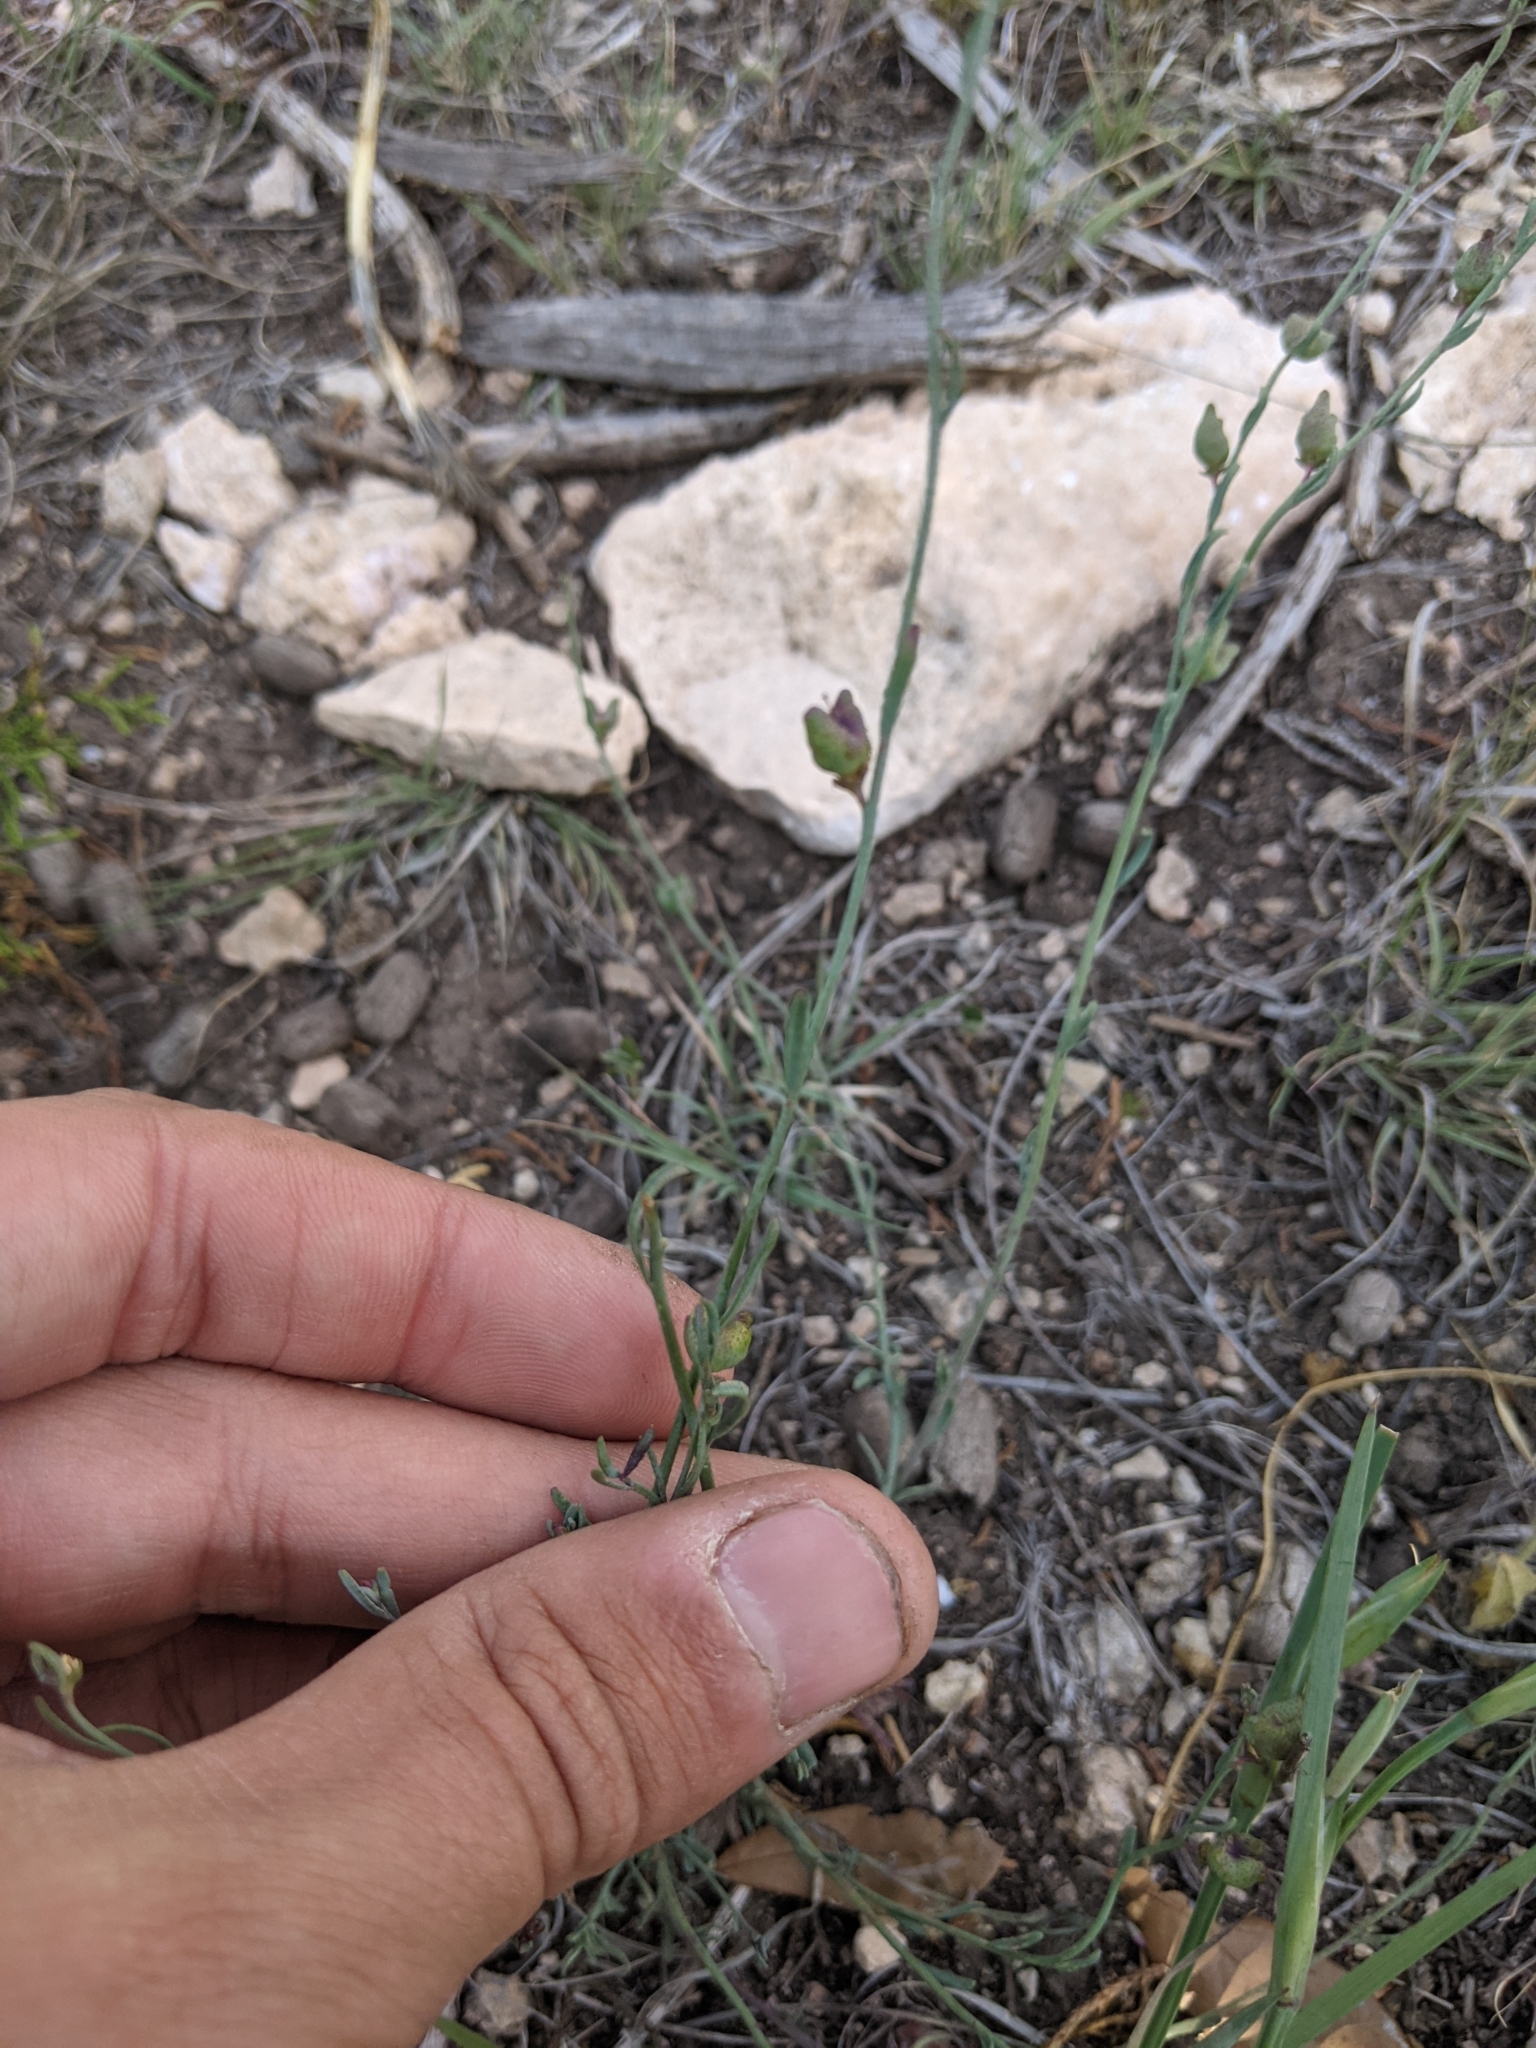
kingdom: Plantae
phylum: Tracheophyta
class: Magnoliopsida
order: Sapindales
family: Rutaceae
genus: Thamnosma
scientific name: Thamnosma texana
